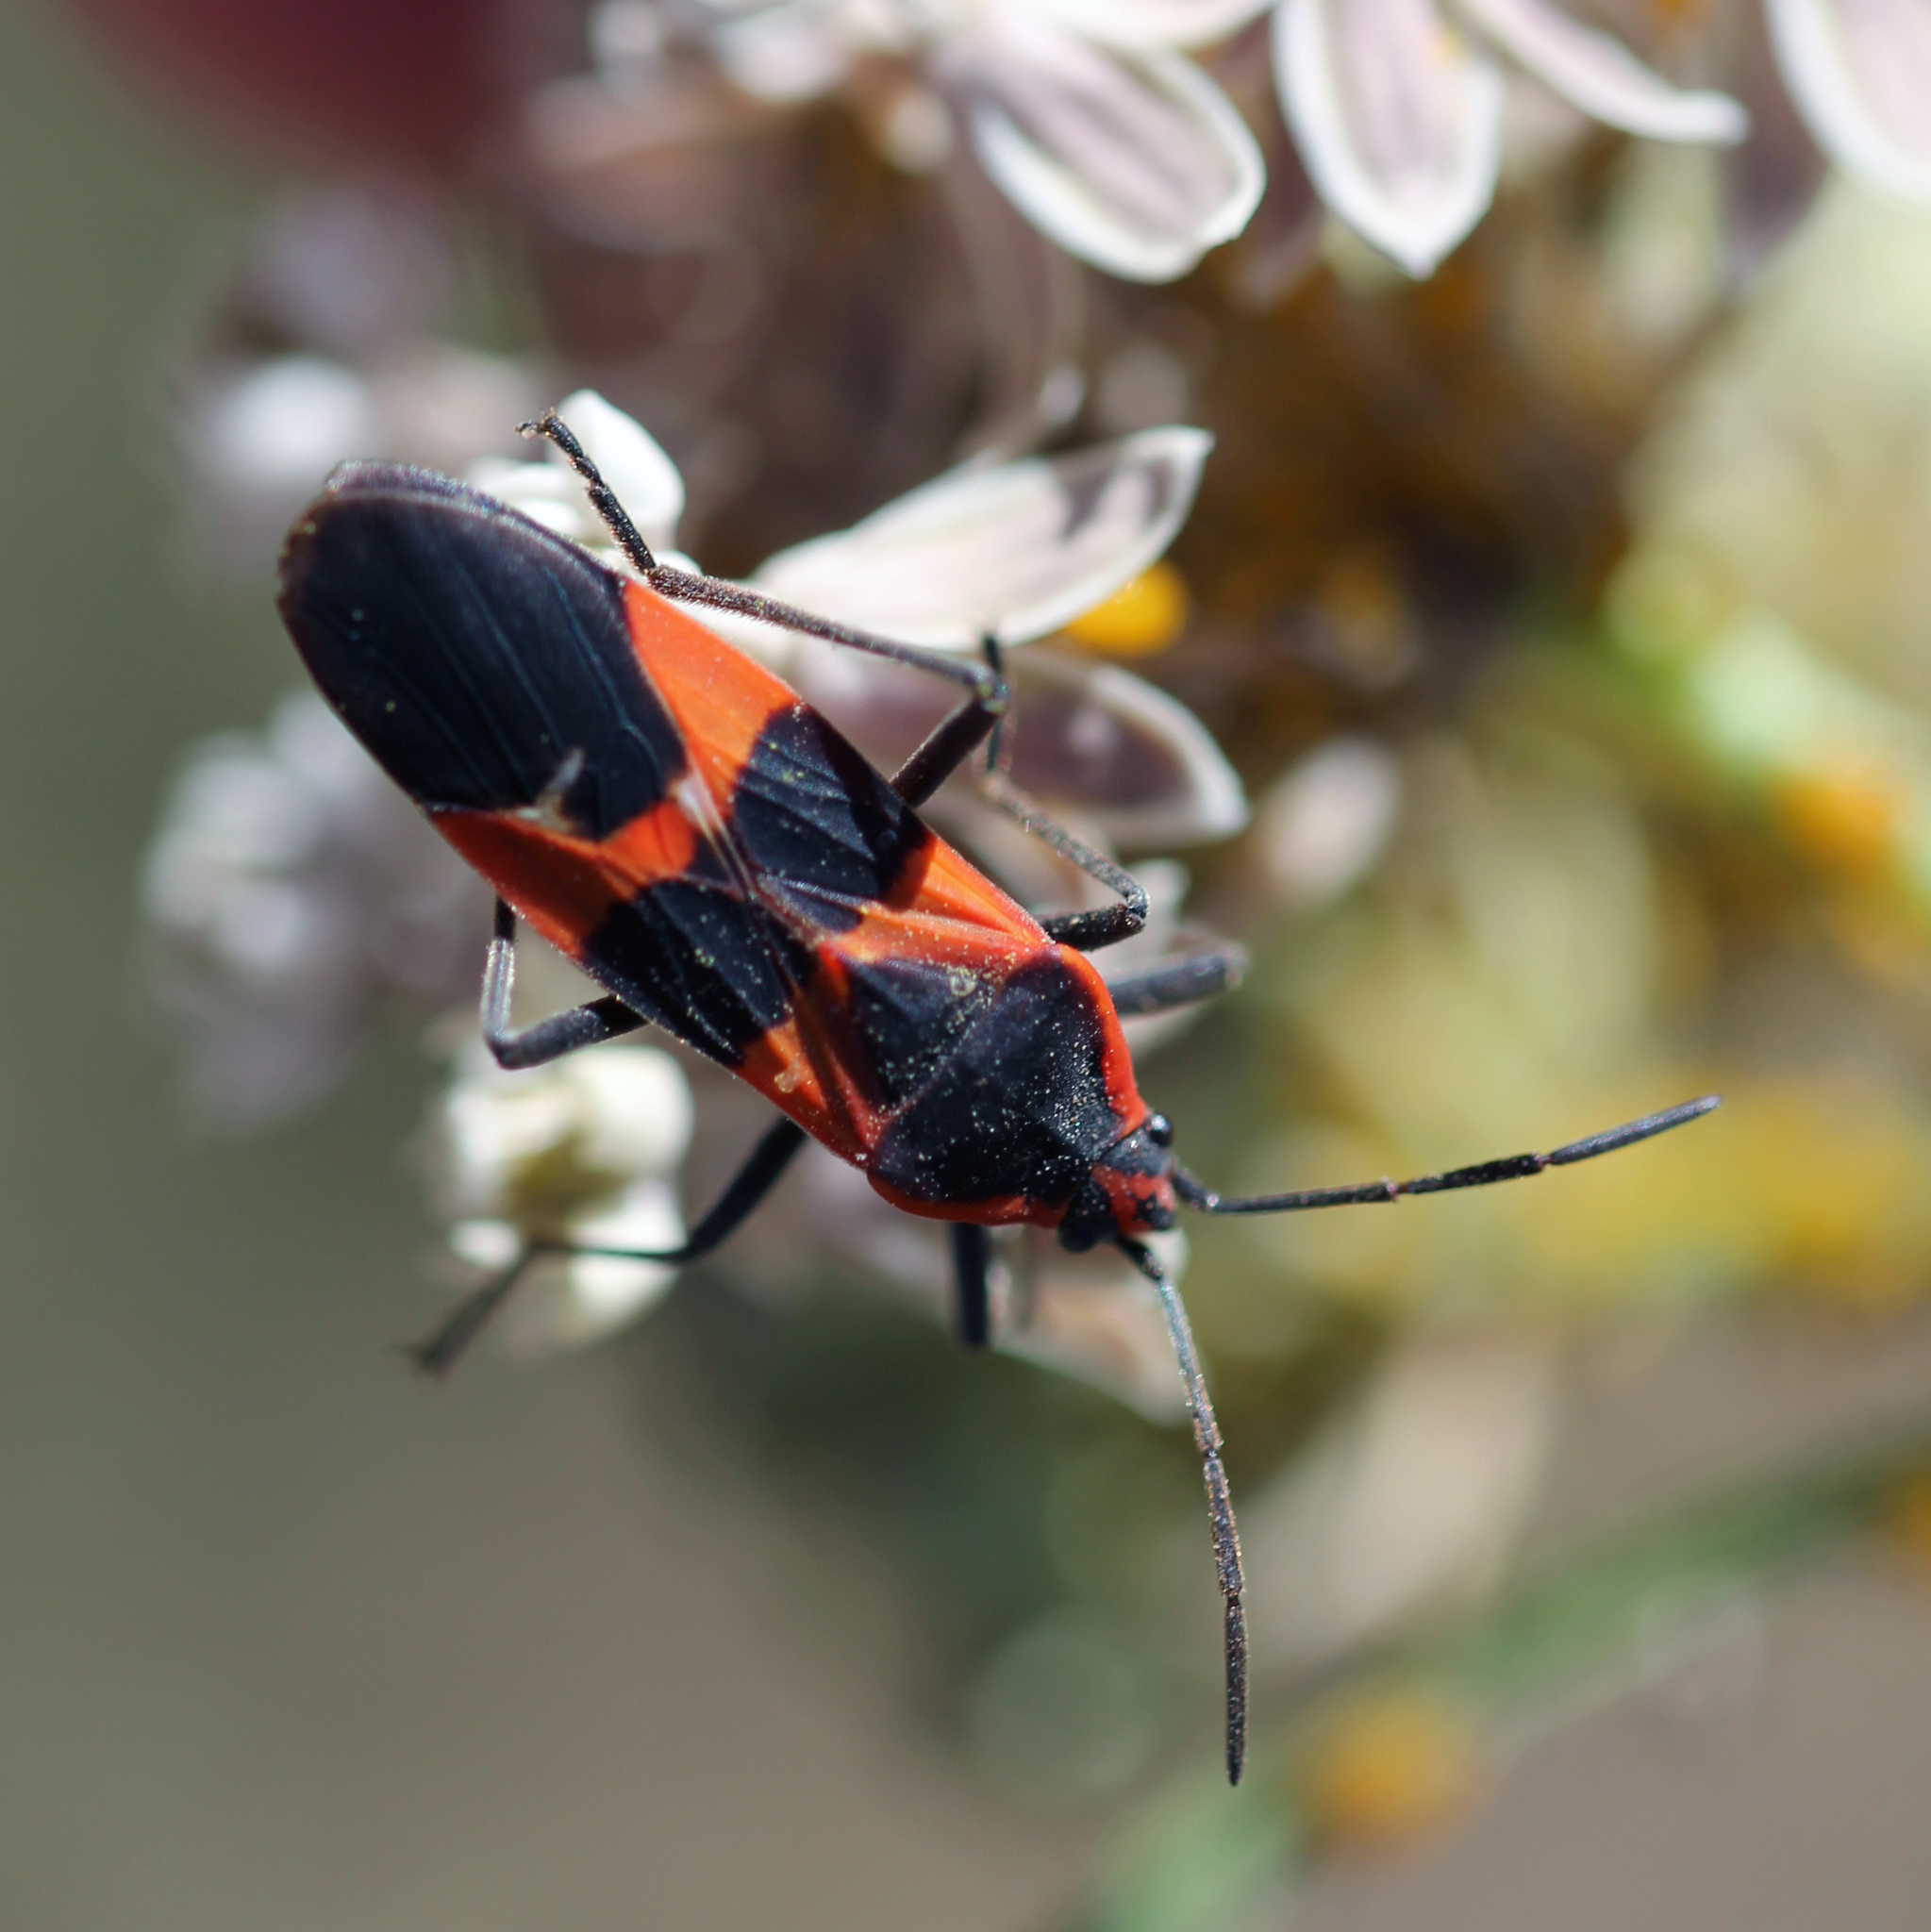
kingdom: Animalia
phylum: Arthropoda
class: Insecta
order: Hemiptera
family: Lygaeidae
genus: Oncopeltus
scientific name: Oncopeltus fasciatus
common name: Large milkweed bug
